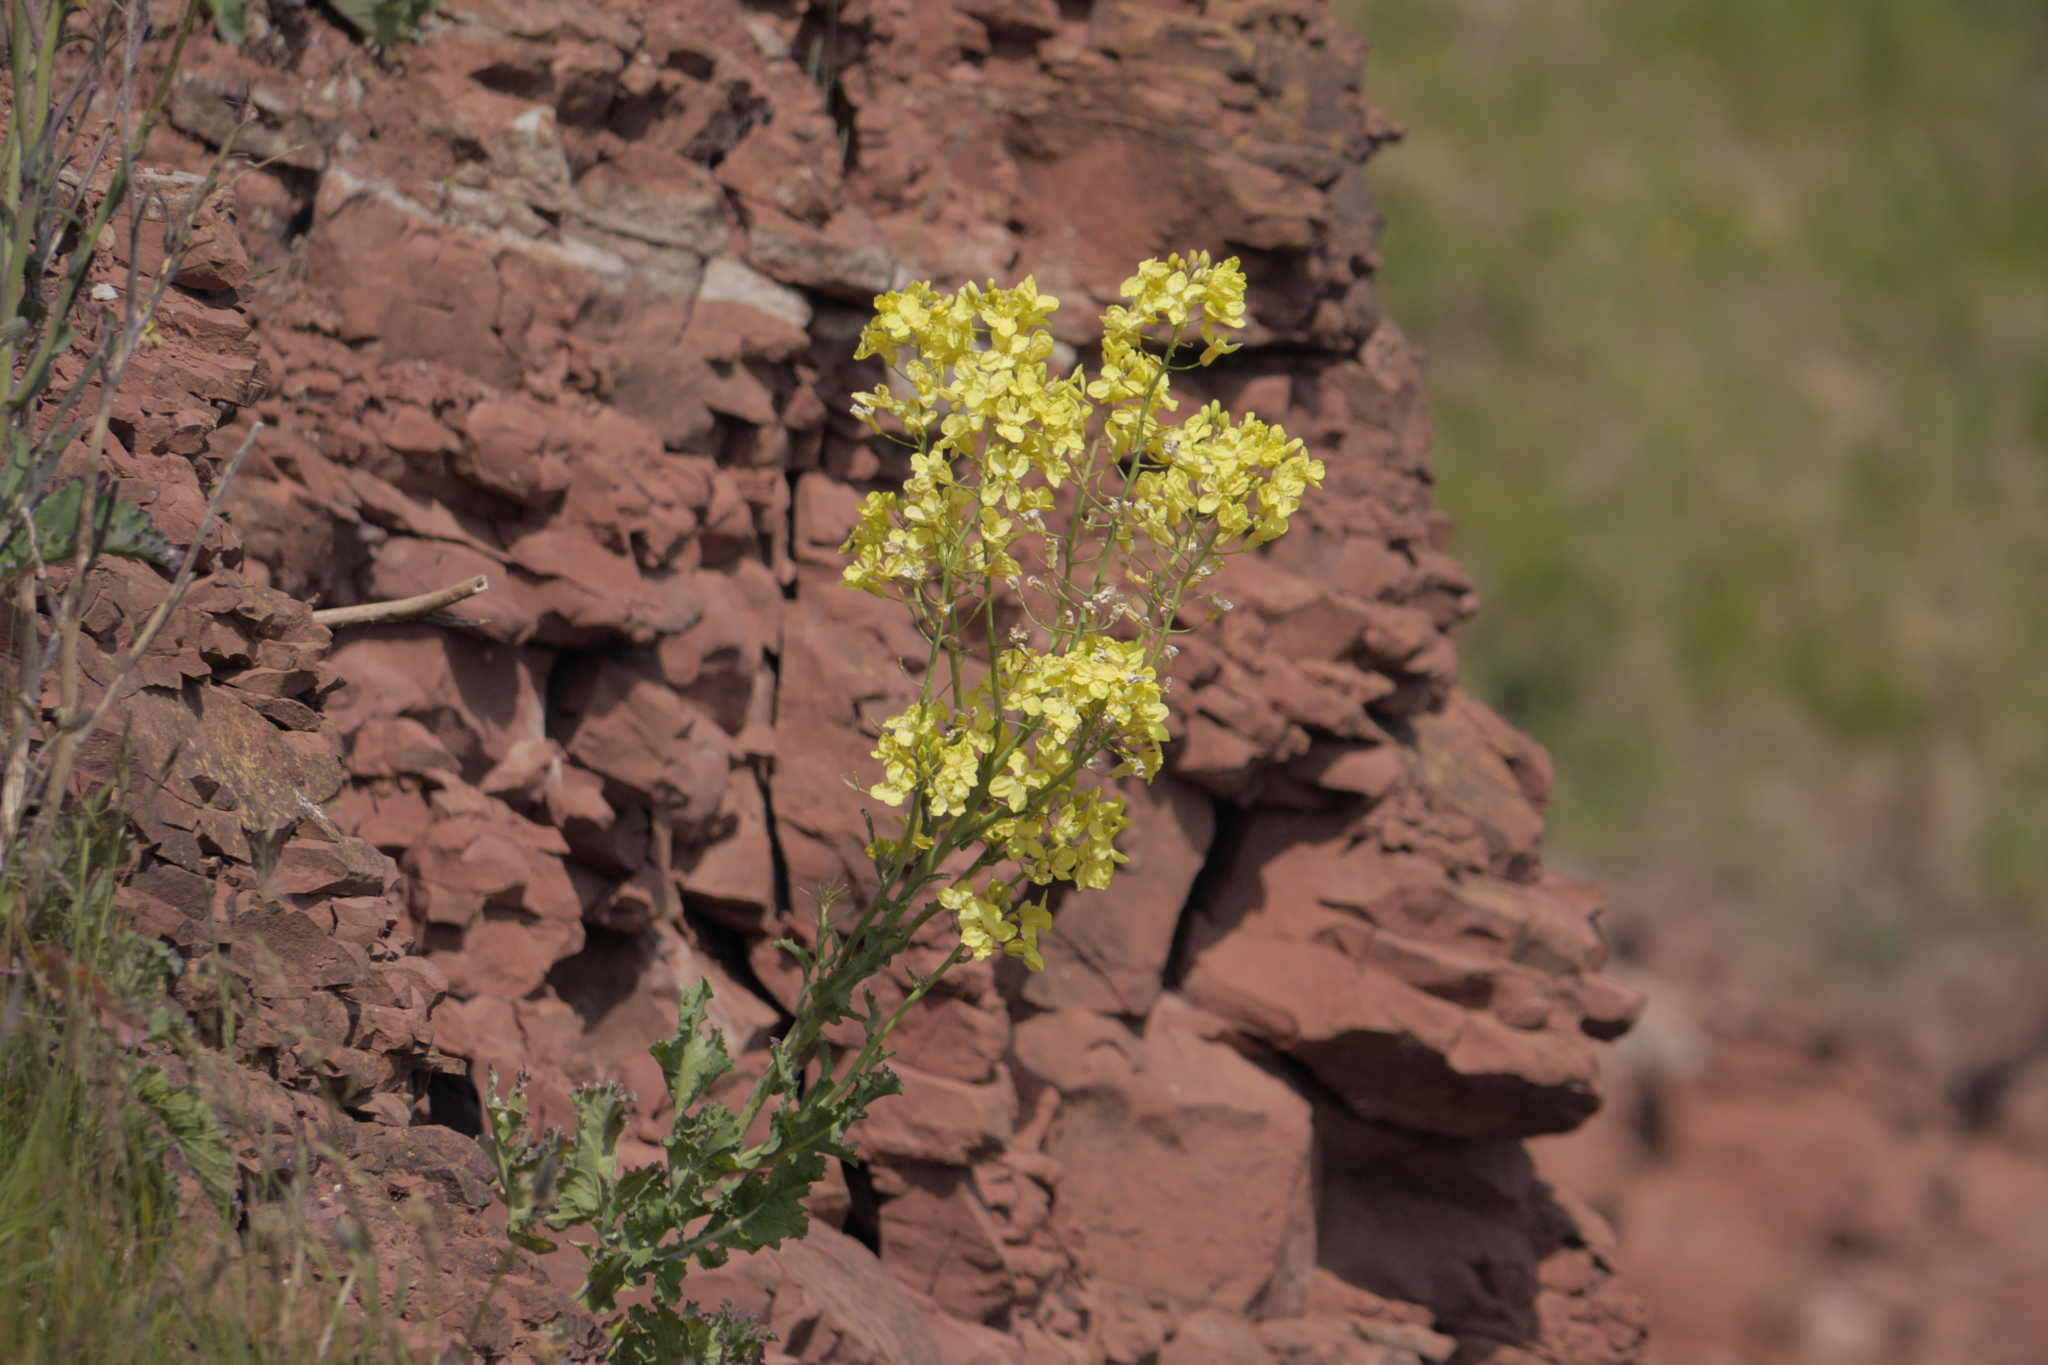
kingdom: Plantae
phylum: Tracheophyta
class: Magnoliopsida
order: Brassicales
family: Brassicaceae
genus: Brassica
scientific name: Brassica oleracea
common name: Cabbage
